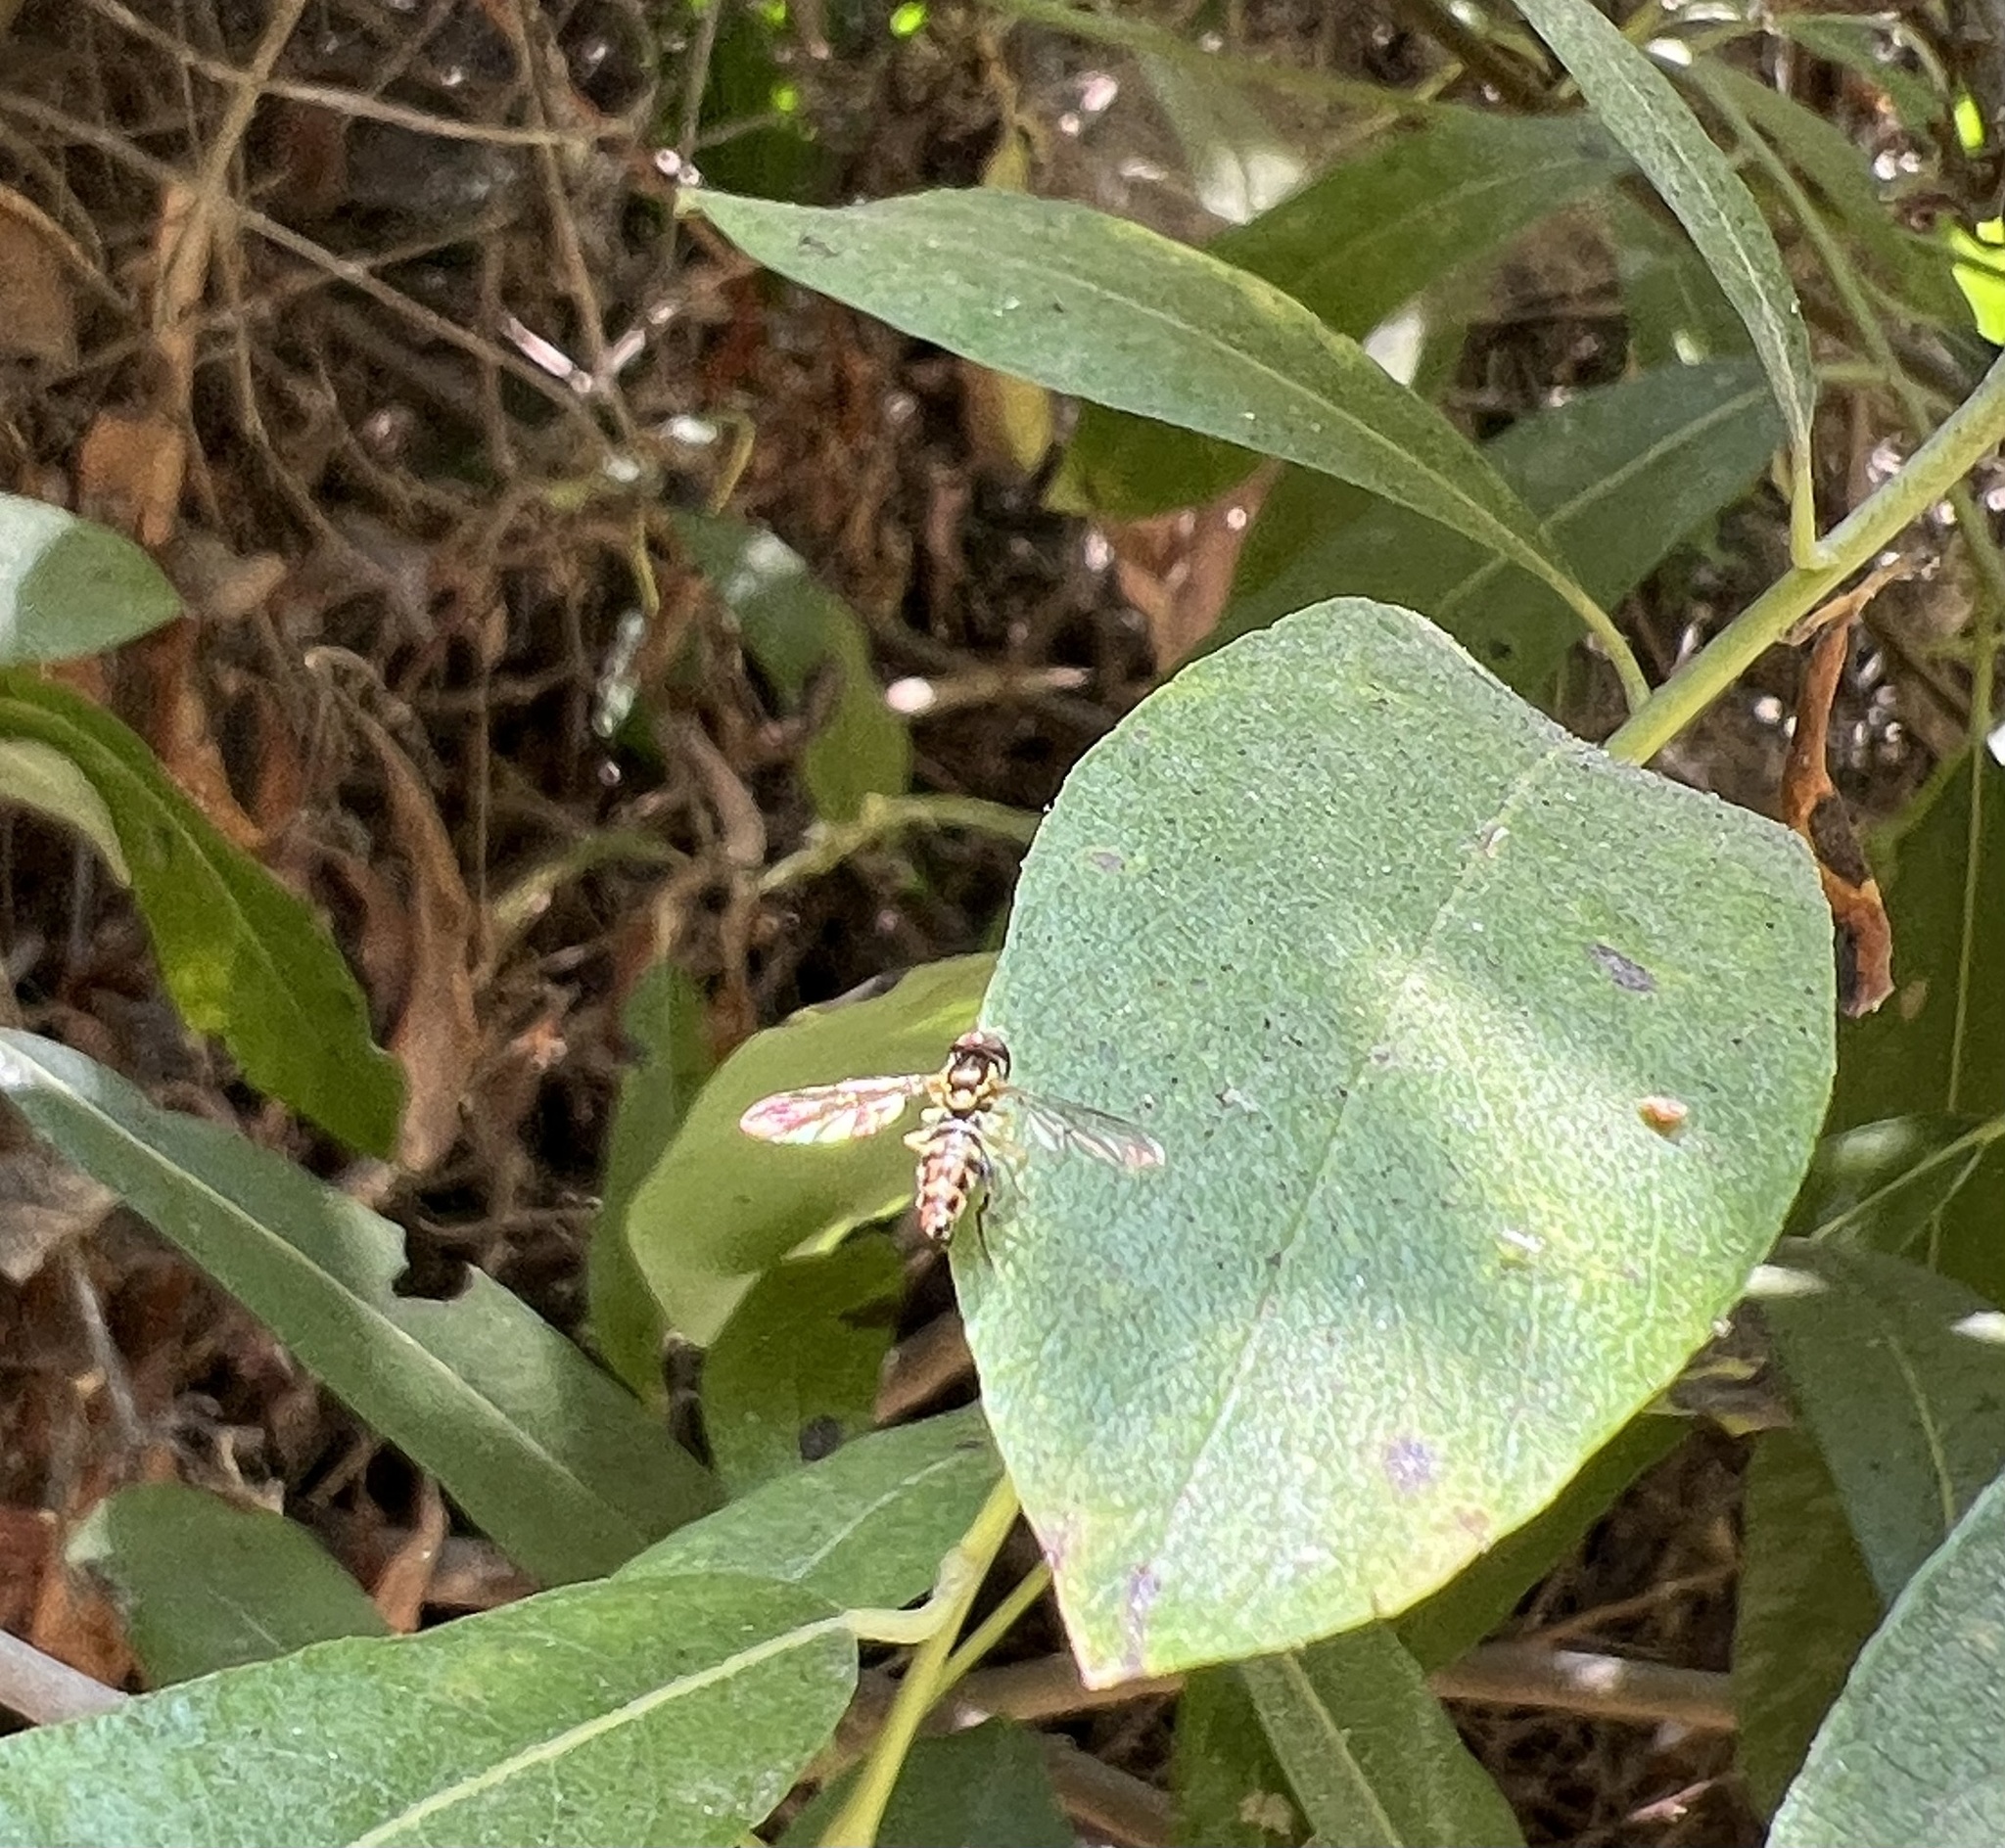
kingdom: Animalia
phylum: Arthropoda
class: Insecta
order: Diptera
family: Syrphidae
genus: Toxomerus
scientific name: Toxomerus occidentalis
